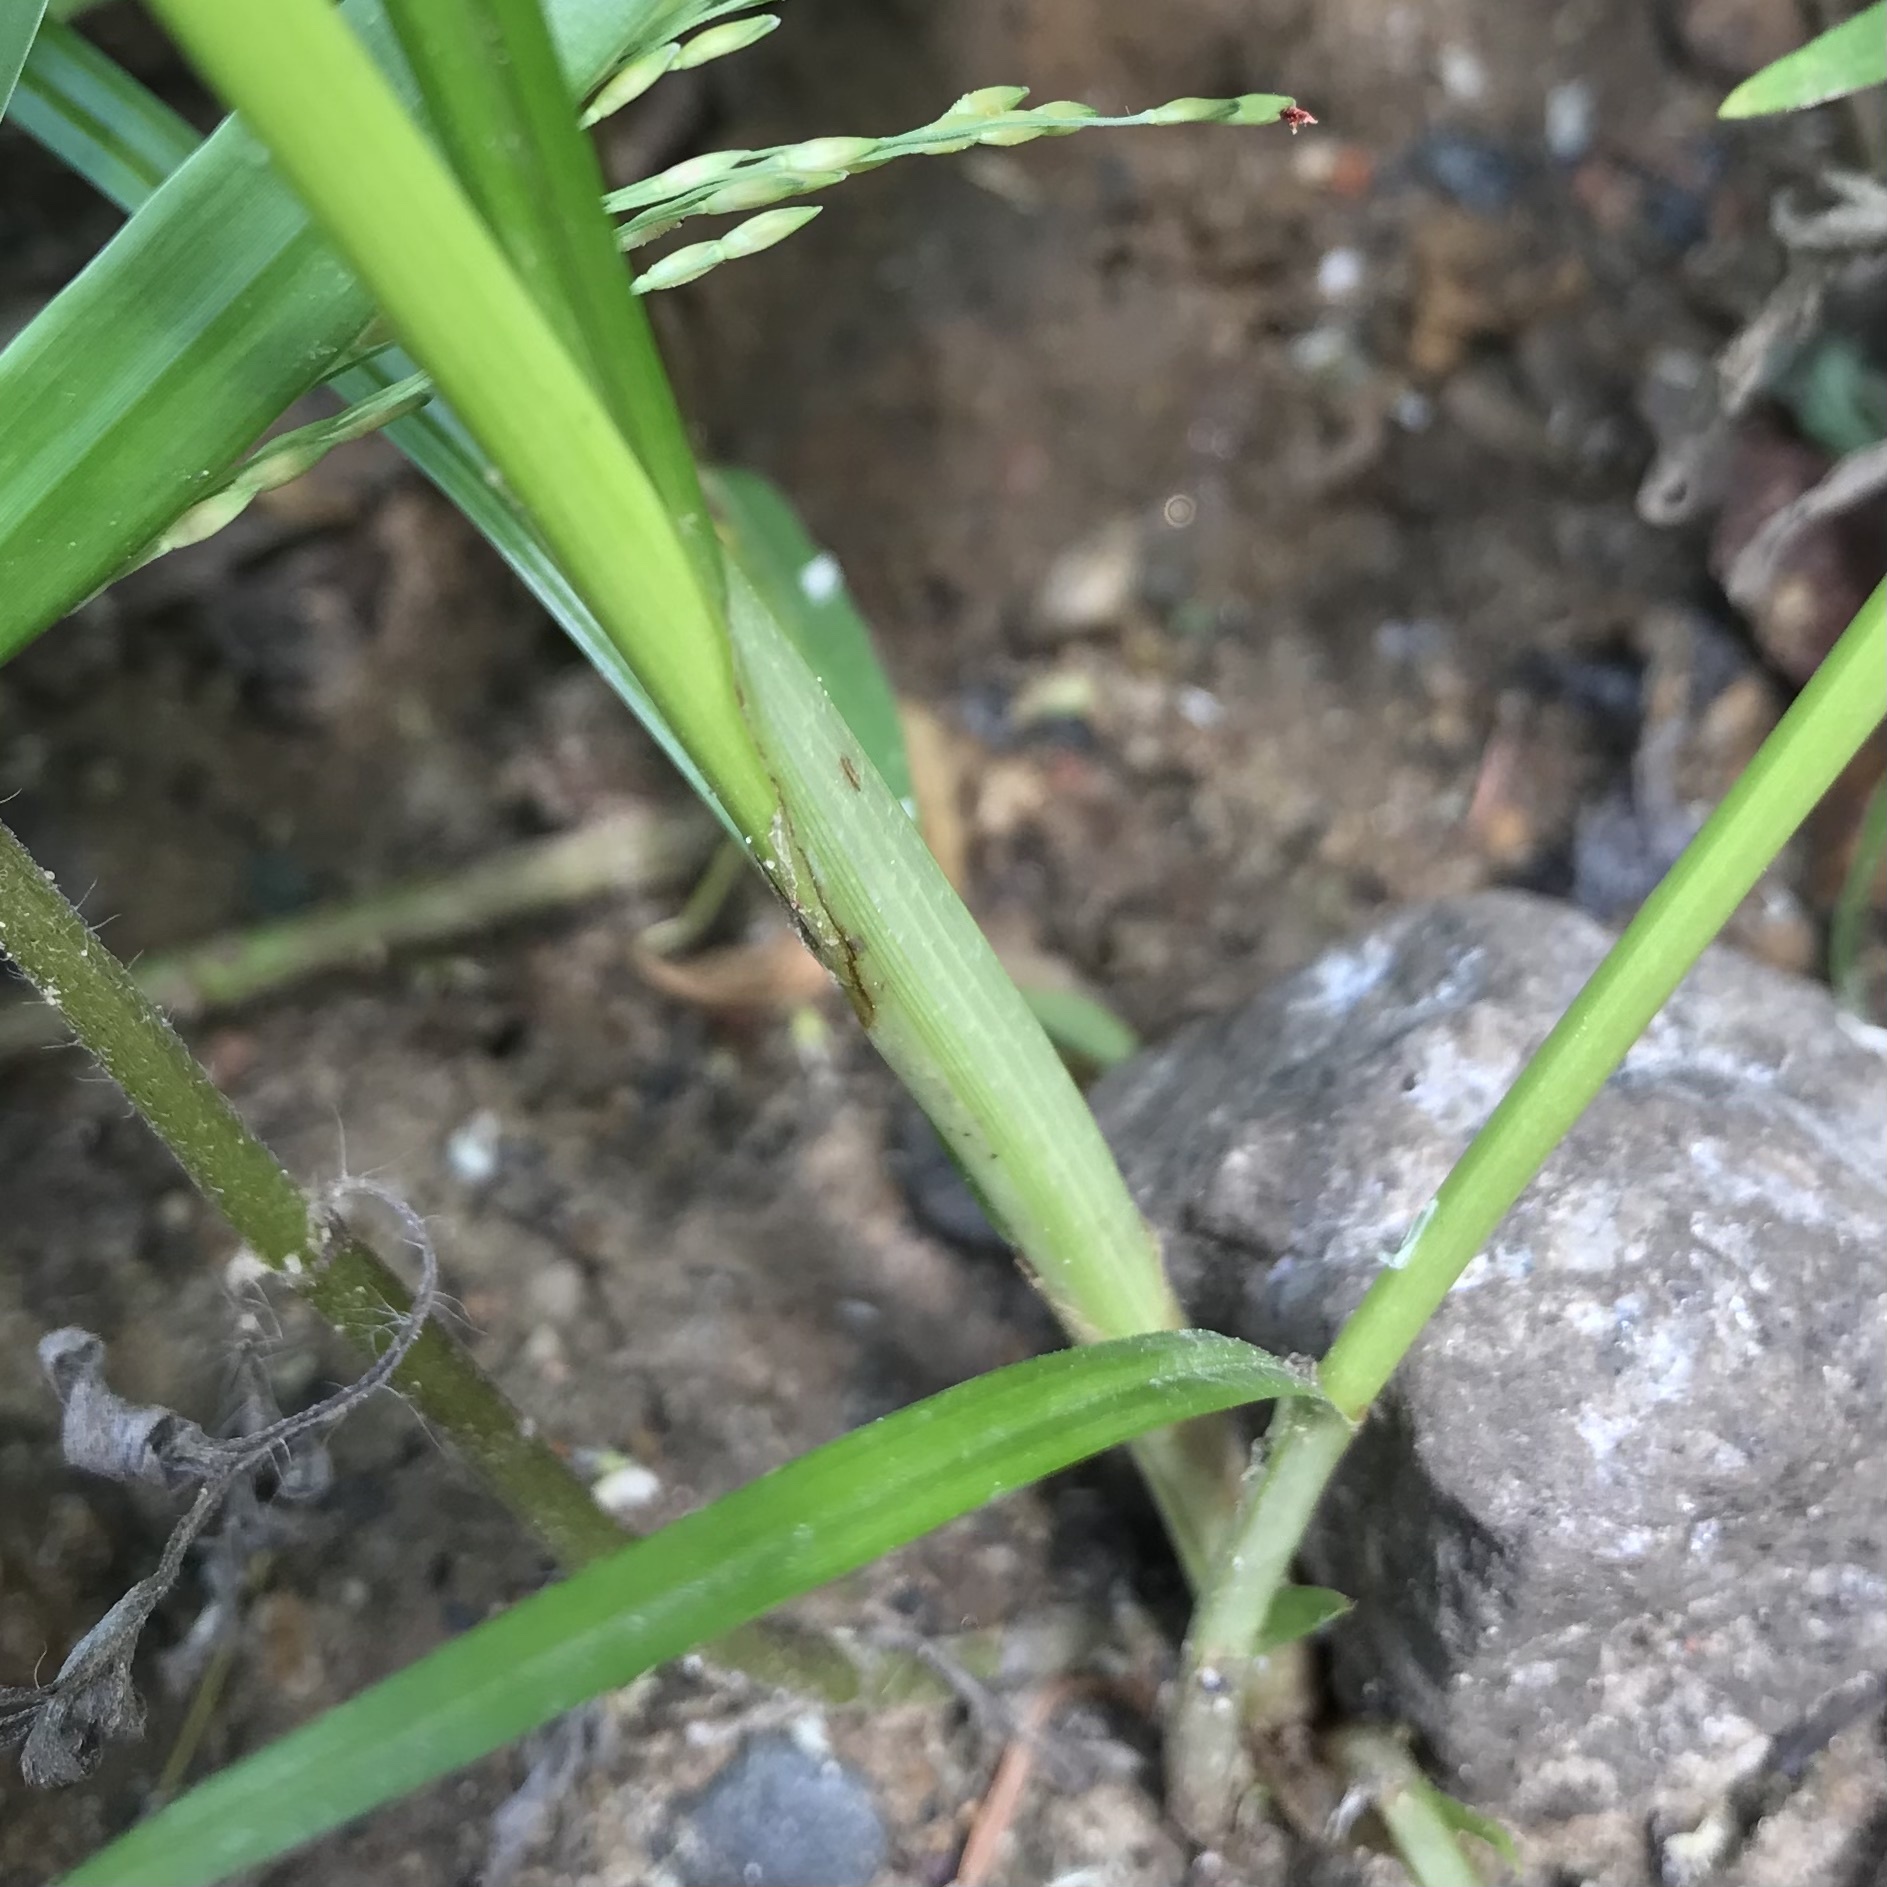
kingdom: Plantae
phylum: Tracheophyta
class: Liliopsida
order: Poales
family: Cyperaceae
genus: Cyperus
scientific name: Cyperus odoratus
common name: Fragrant flatsedge
